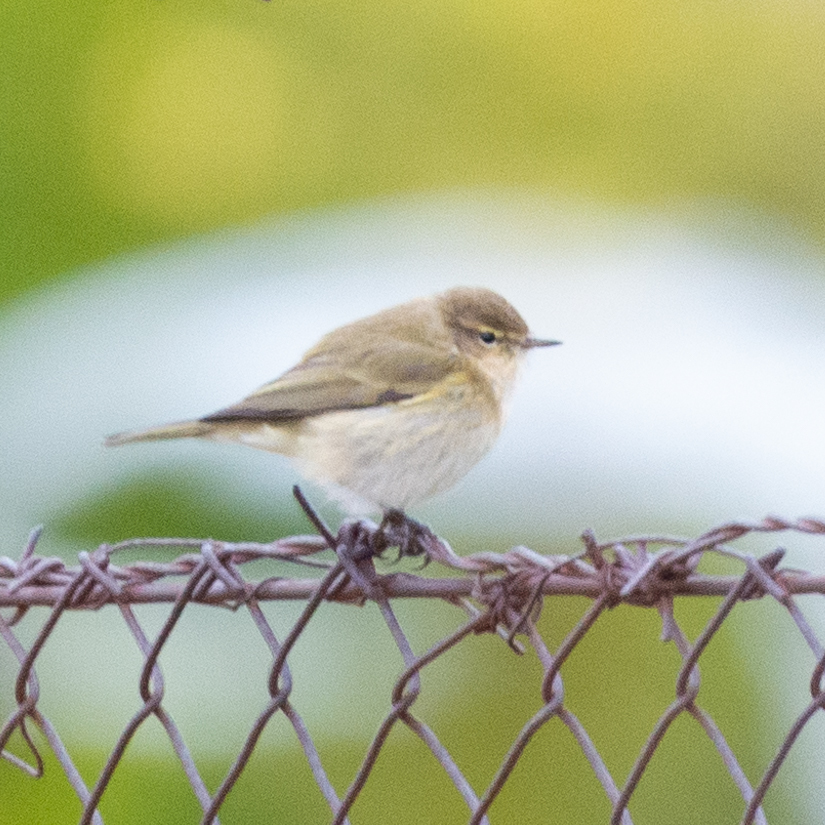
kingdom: Animalia
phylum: Chordata
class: Aves
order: Passeriformes
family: Phylloscopidae
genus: Phylloscopus
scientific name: Phylloscopus collybita
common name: Common chiffchaff
